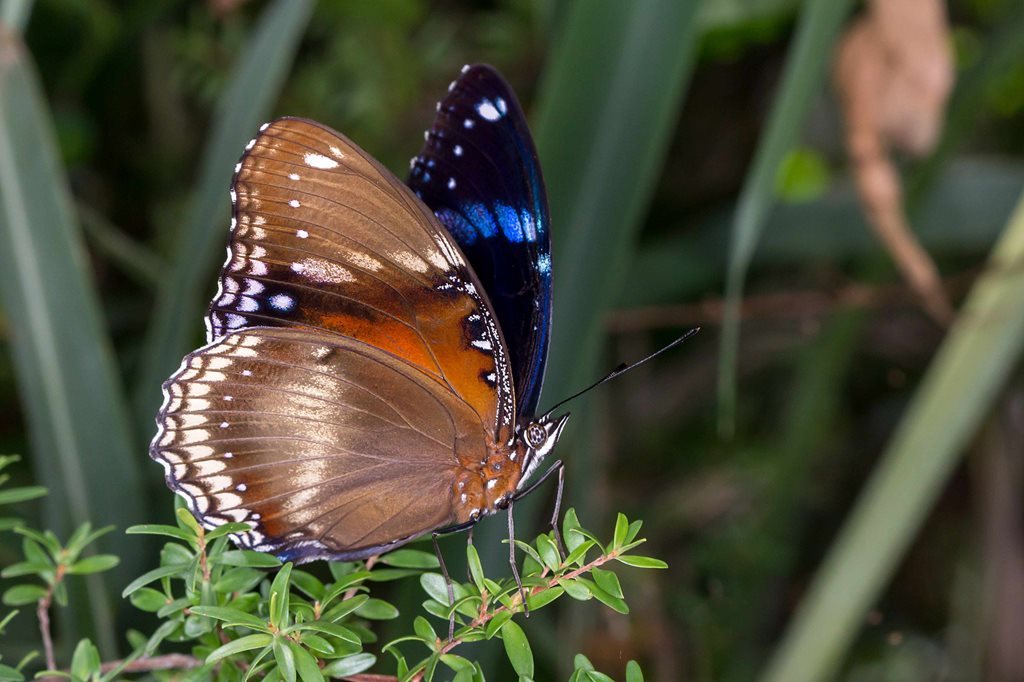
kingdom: Animalia
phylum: Arthropoda
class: Insecta
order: Lepidoptera
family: Nymphalidae
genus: Hypolimnas
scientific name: Hypolimnas bolina
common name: Great eggfly
